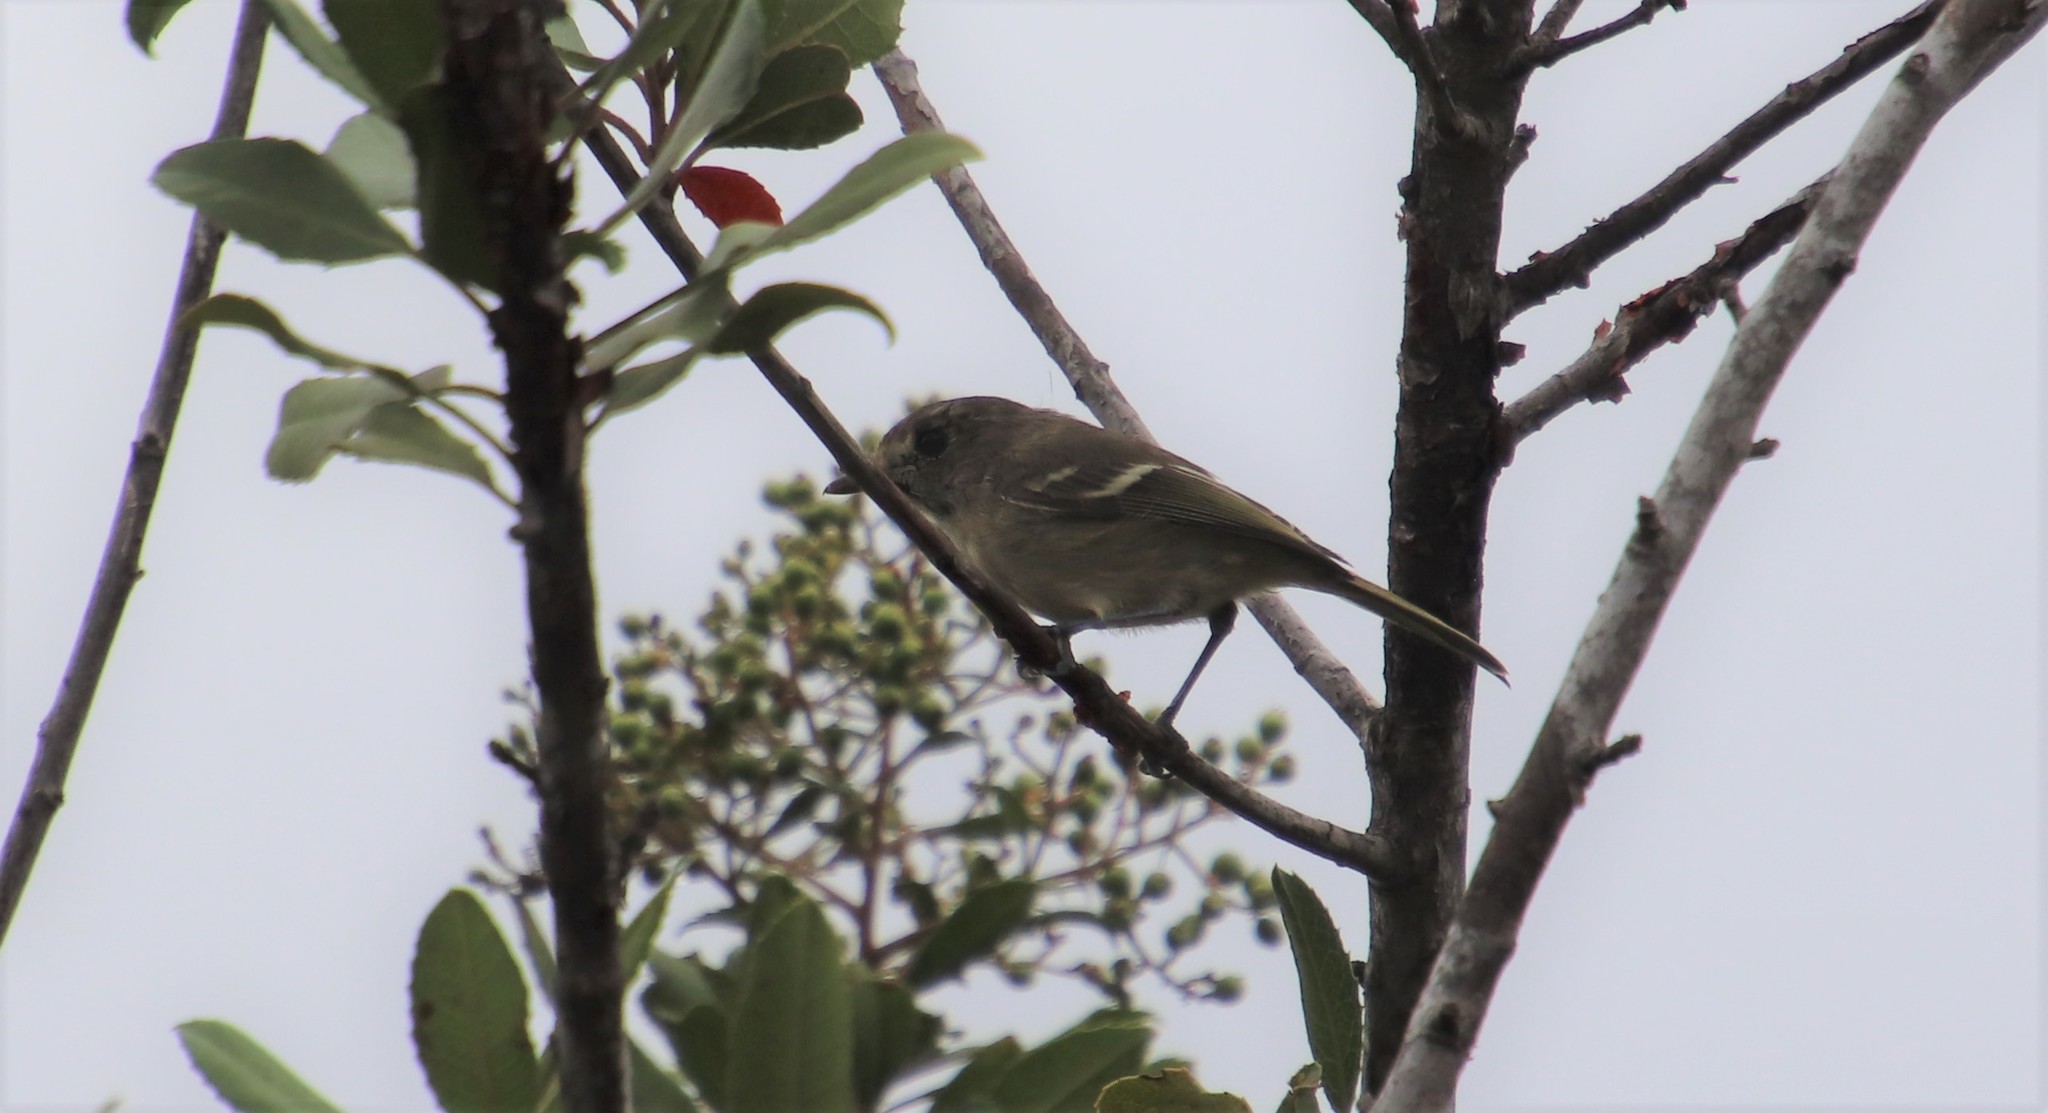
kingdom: Animalia
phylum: Chordata
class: Aves
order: Passeriformes
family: Vireonidae
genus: Vireo
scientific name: Vireo huttoni
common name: Hutton's vireo
